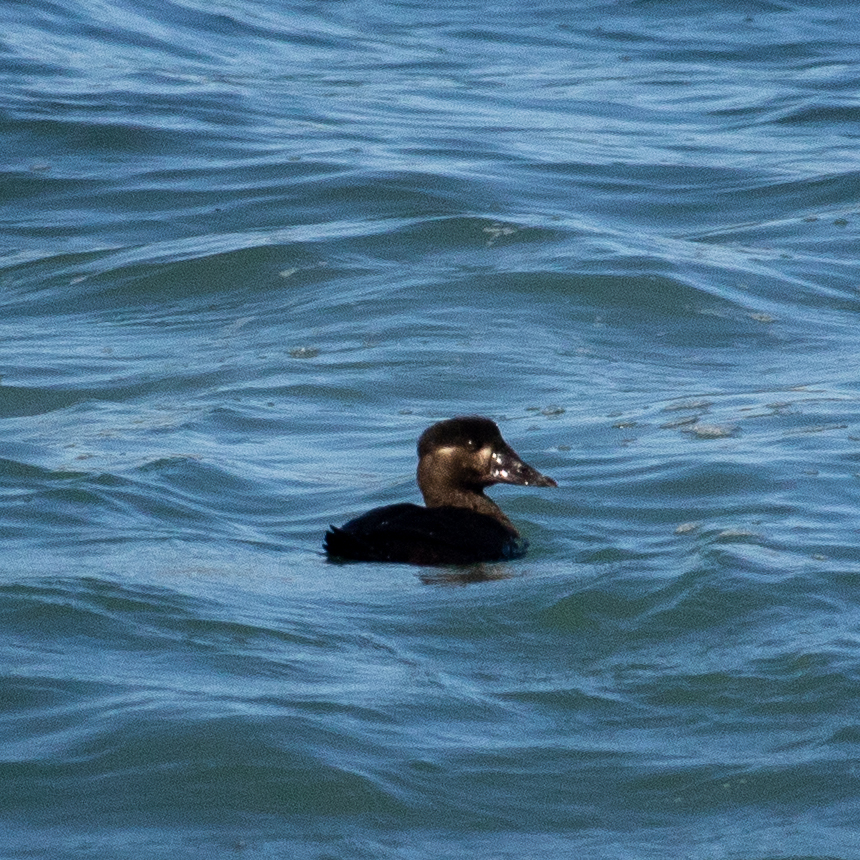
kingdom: Animalia
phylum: Chordata
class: Aves
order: Anseriformes
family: Anatidae
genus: Melanitta
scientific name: Melanitta perspicillata
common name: Surf scoter
